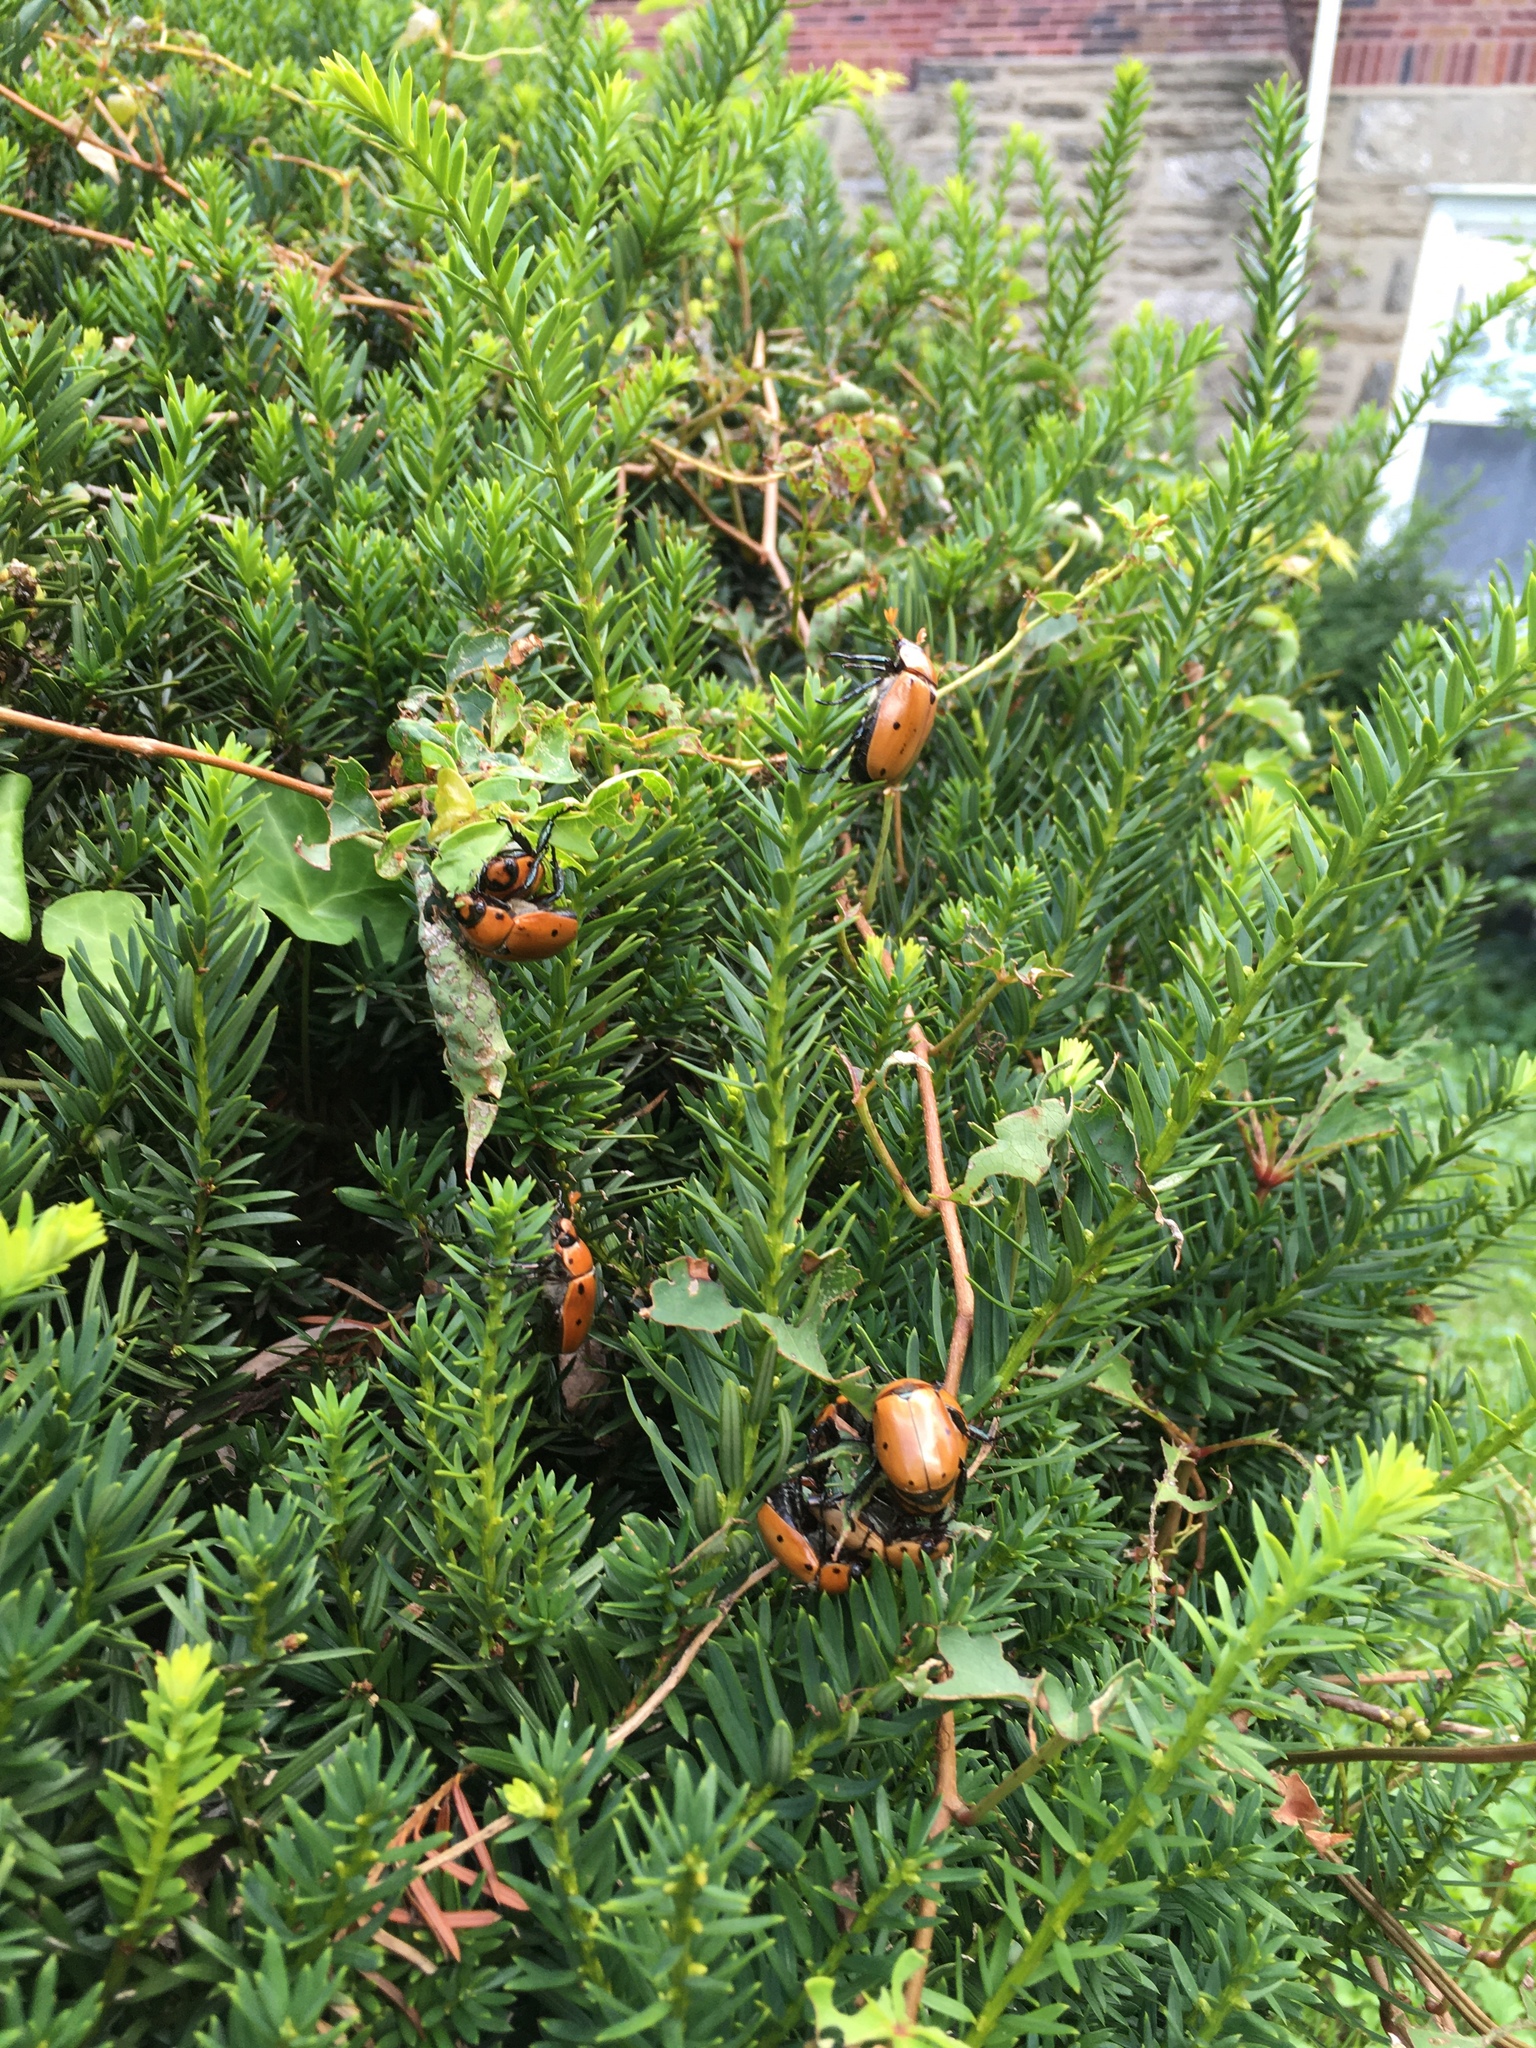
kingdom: Animalia
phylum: Arthropoda
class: Insecta
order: Coleoptera
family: Scarabaeidae
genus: Pelidnota
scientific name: Pelidnota punctata
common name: Grapevine beetle
